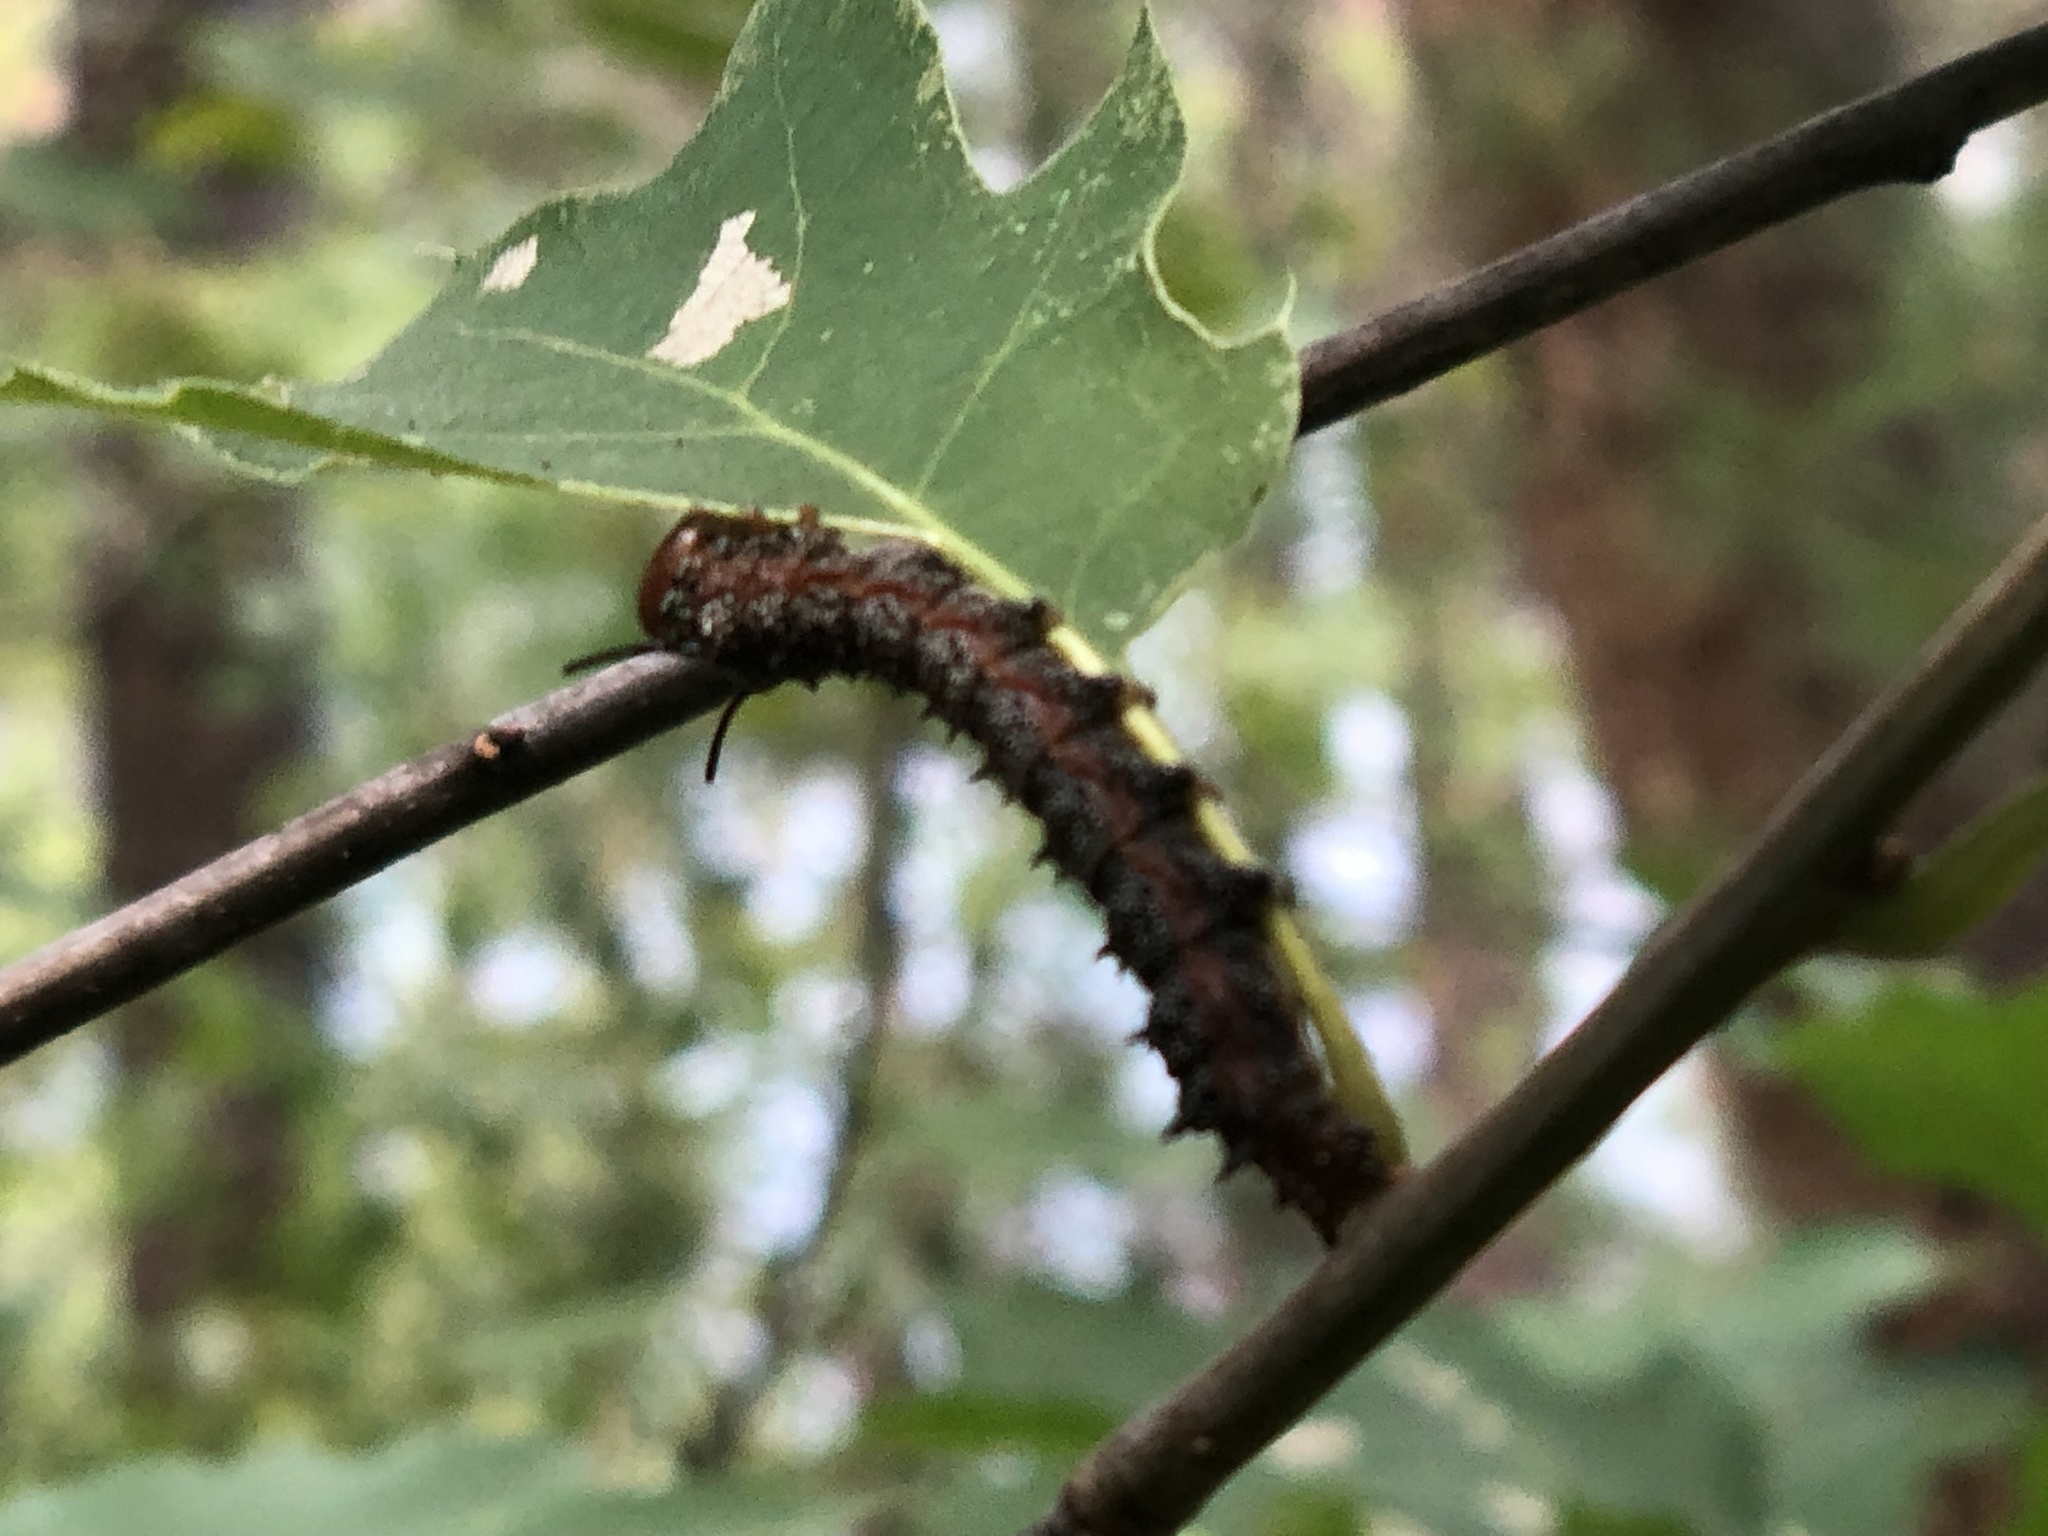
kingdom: Animalia
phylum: Arthropoda
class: Insecta
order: Lepidoptera
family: Saturniidae
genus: Anisota
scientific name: Anisota virginiensis
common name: Pink striped oakworm moth
